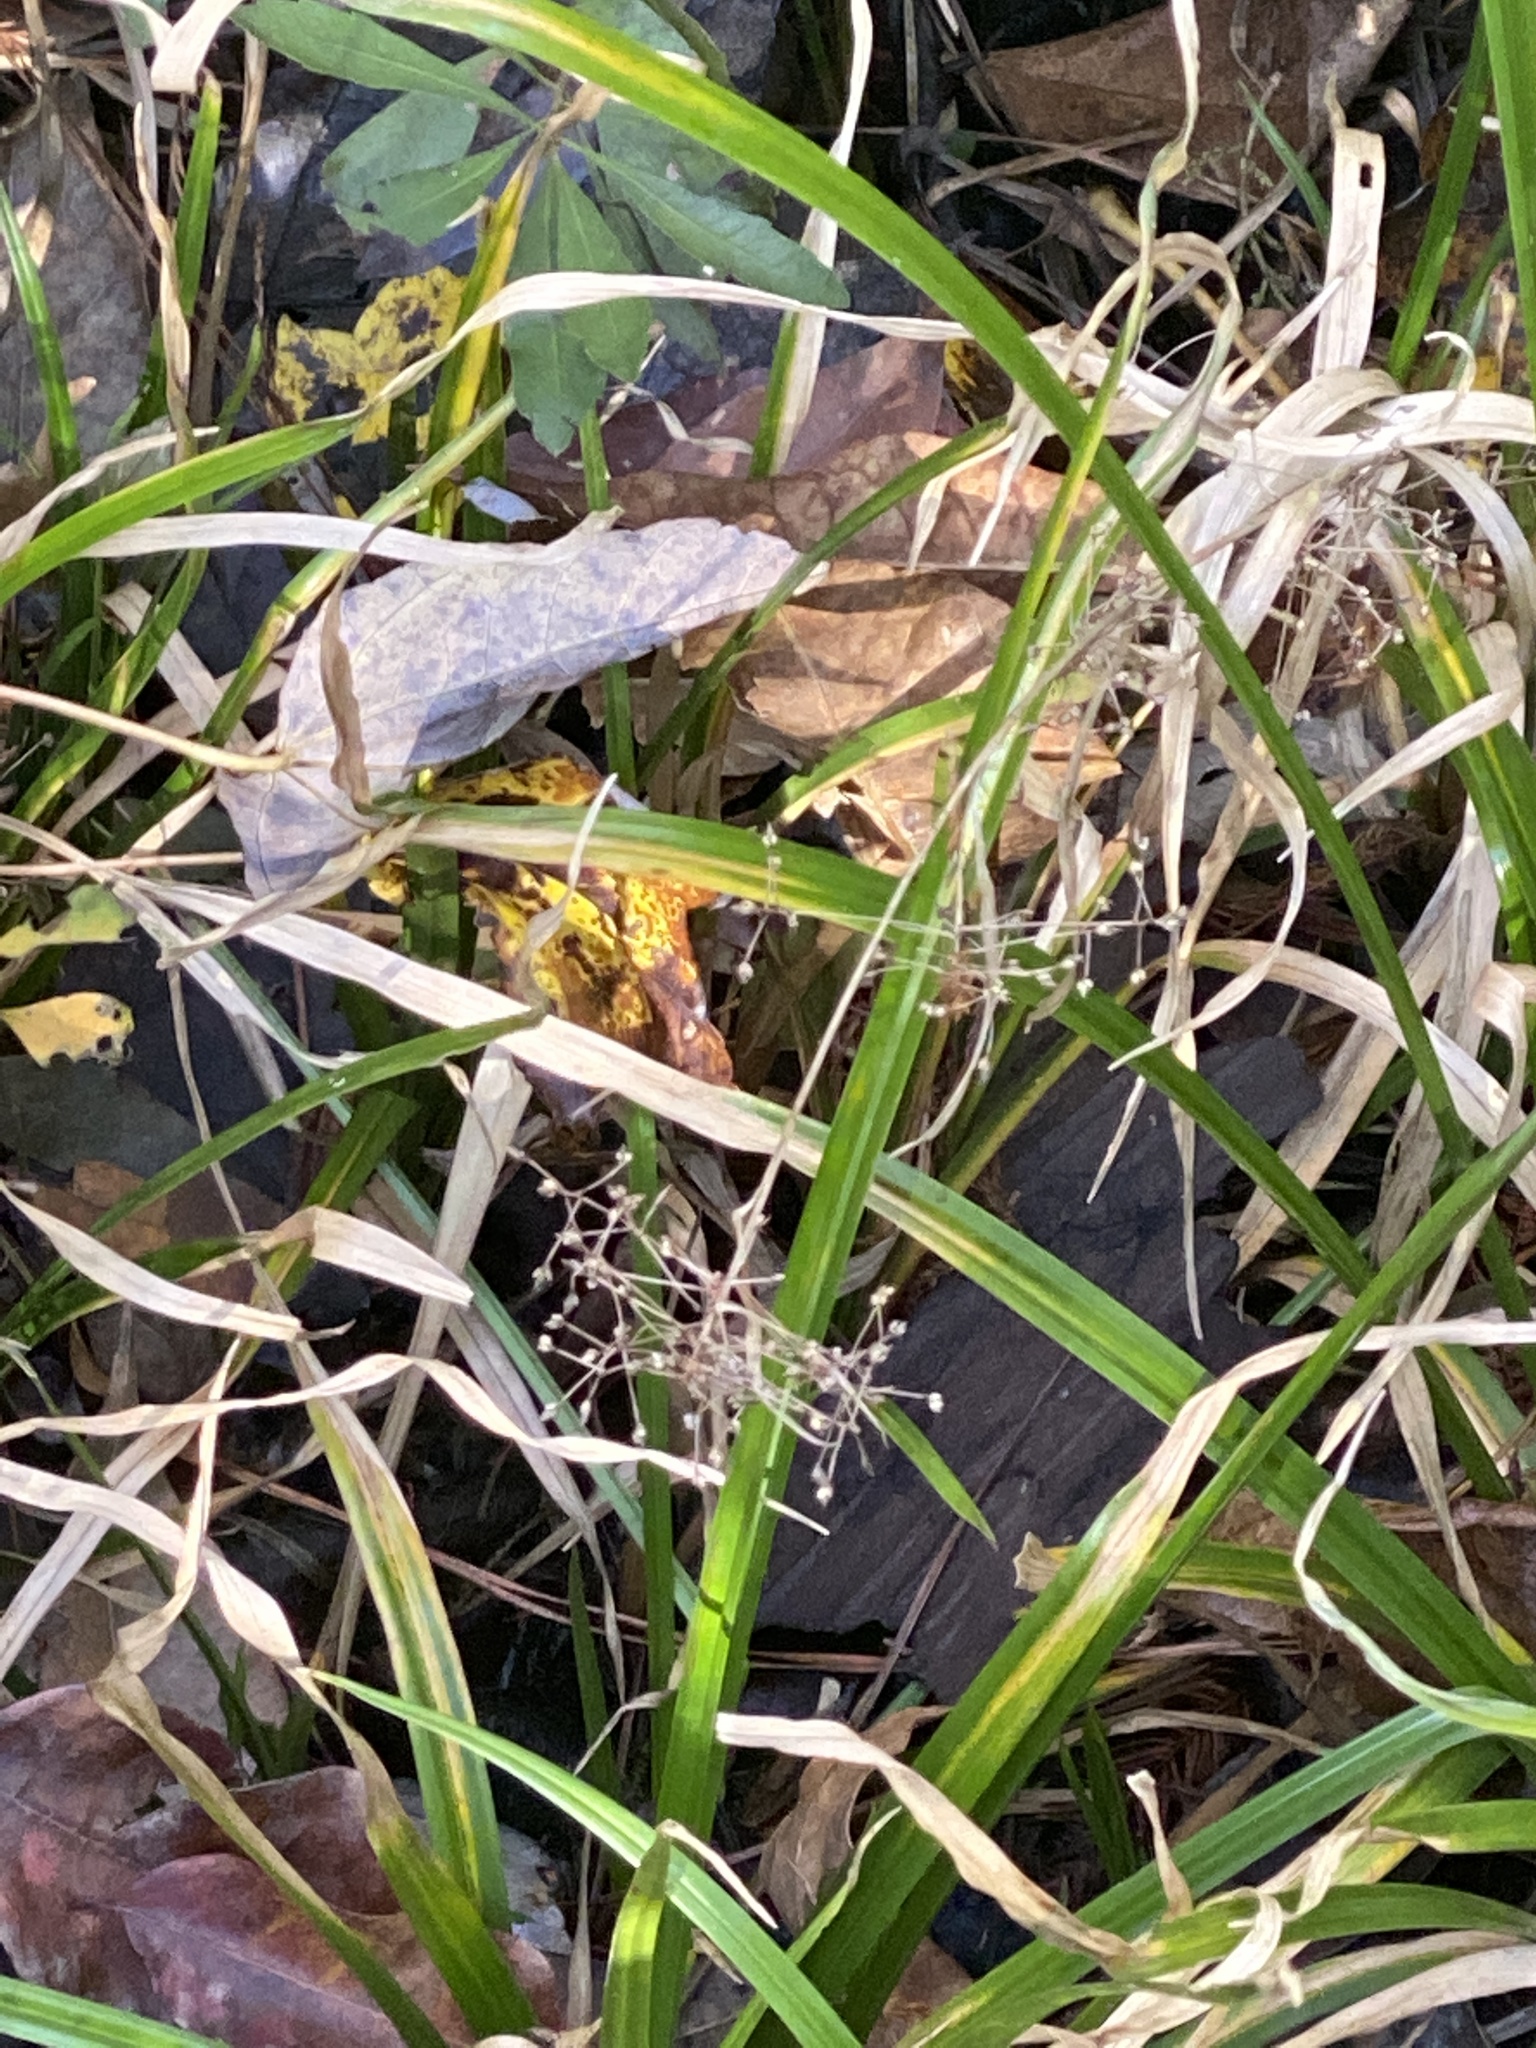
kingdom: Plantae
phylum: Tracheophyta
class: Liliopsida
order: Poales
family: Cyperaceae
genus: Rhynchospora
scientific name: Rhynchospora miliacea
